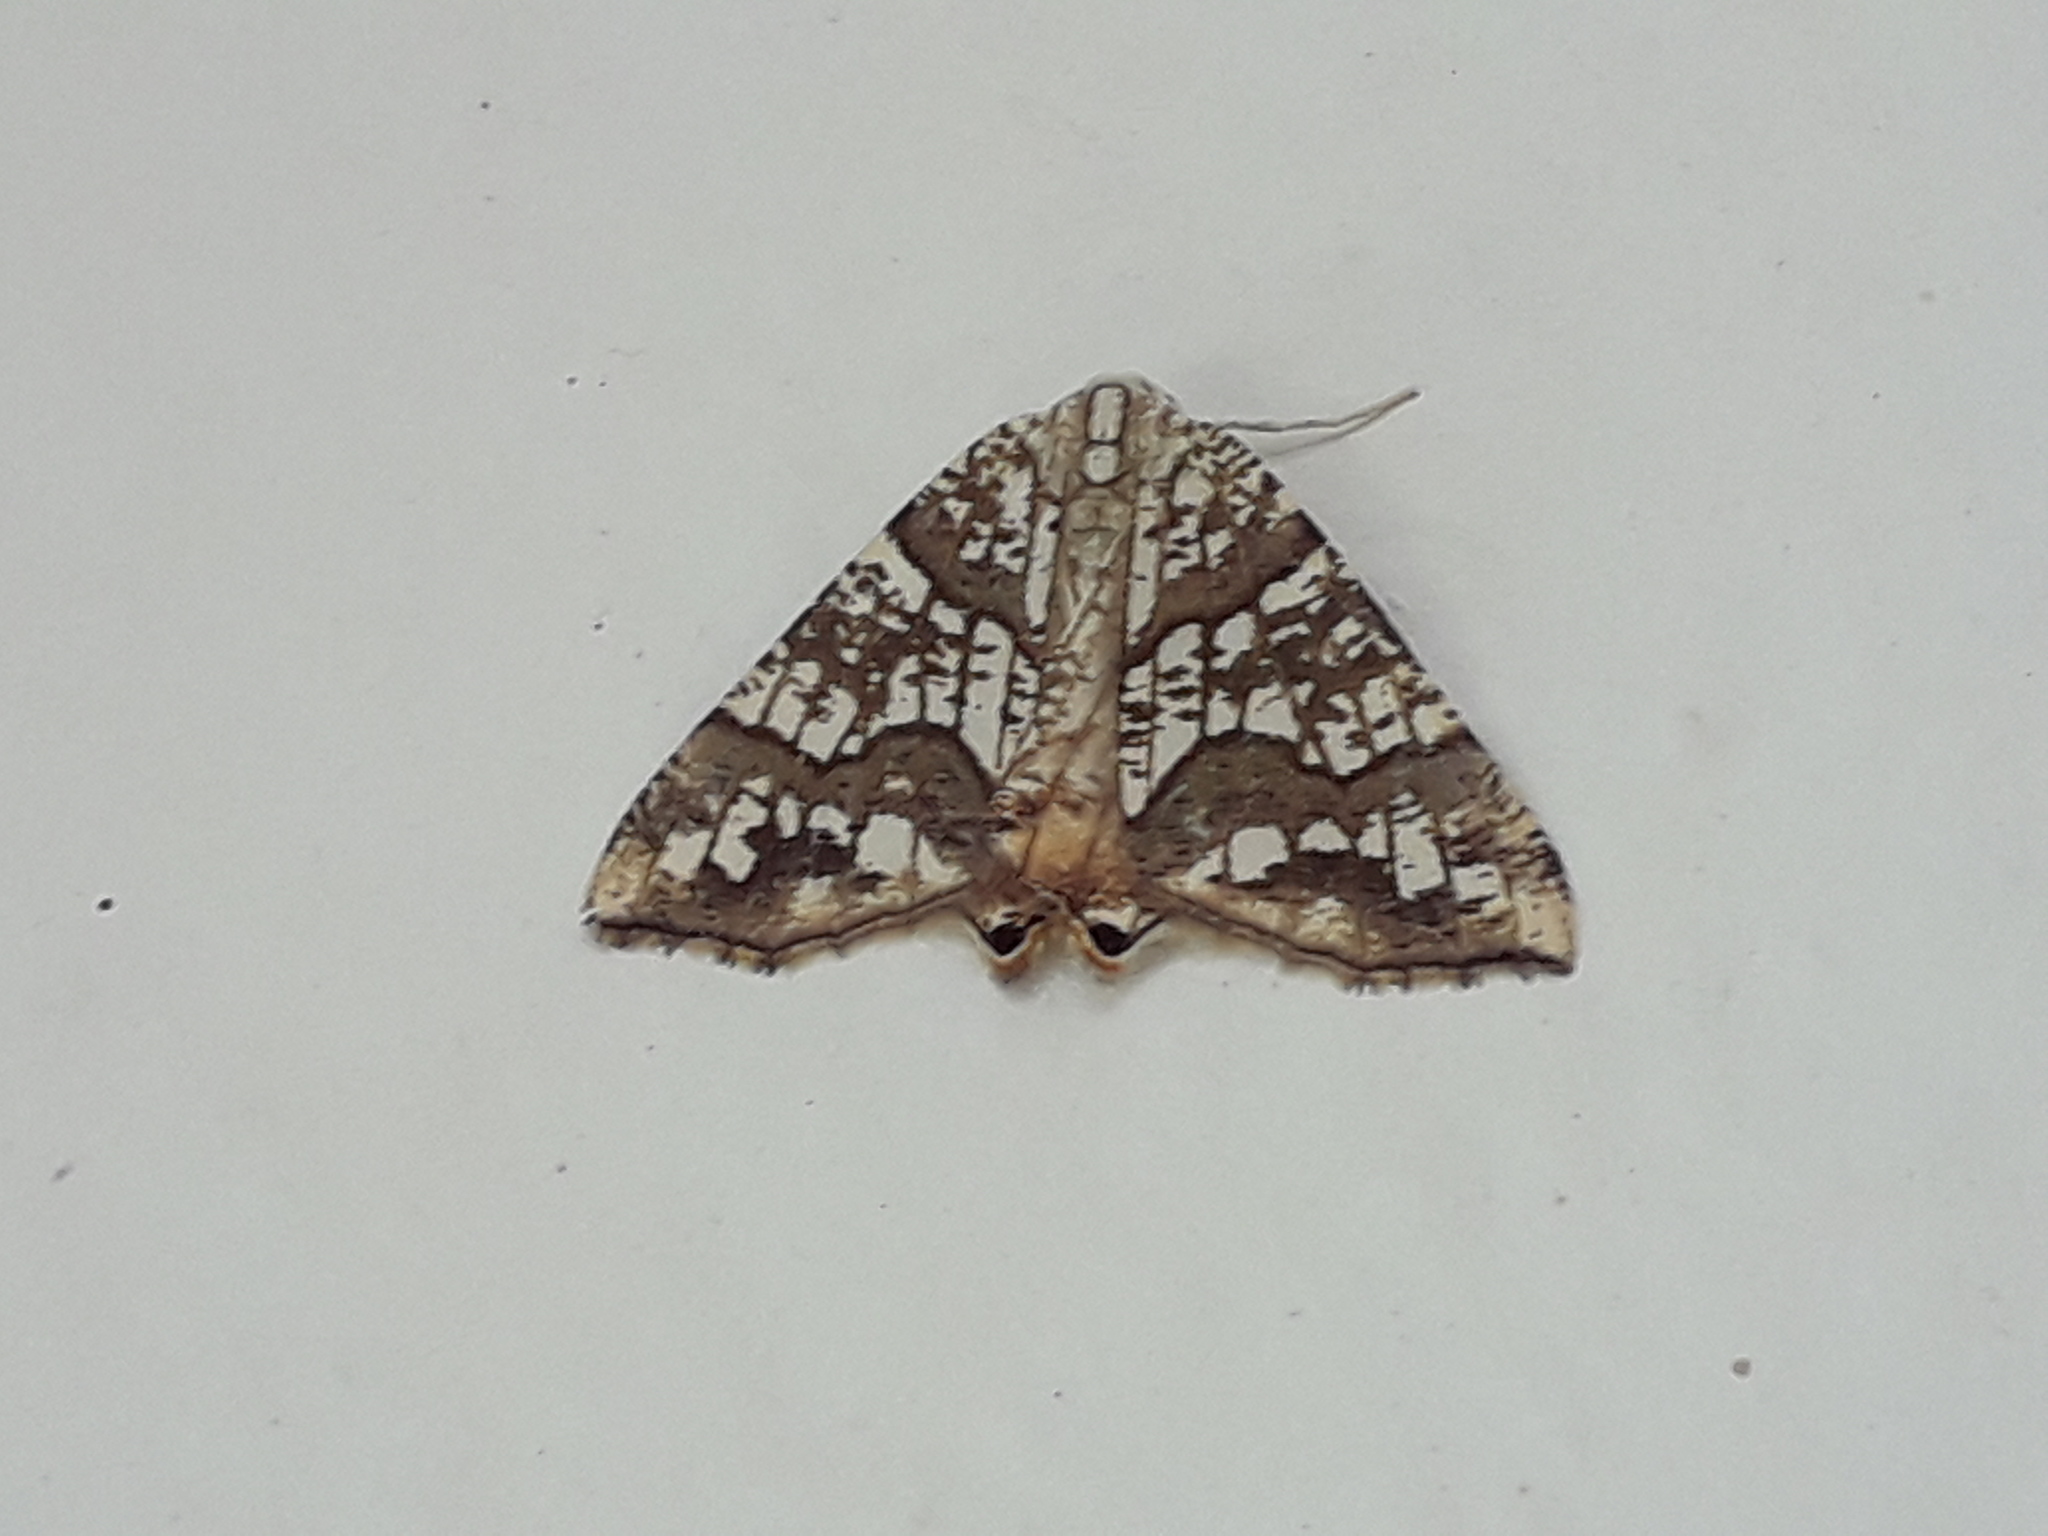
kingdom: Animalia
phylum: Arthropoda
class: Insecta
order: Lepidoptera
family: Geometridae
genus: Rindgeria
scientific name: Rindgeria ornata
